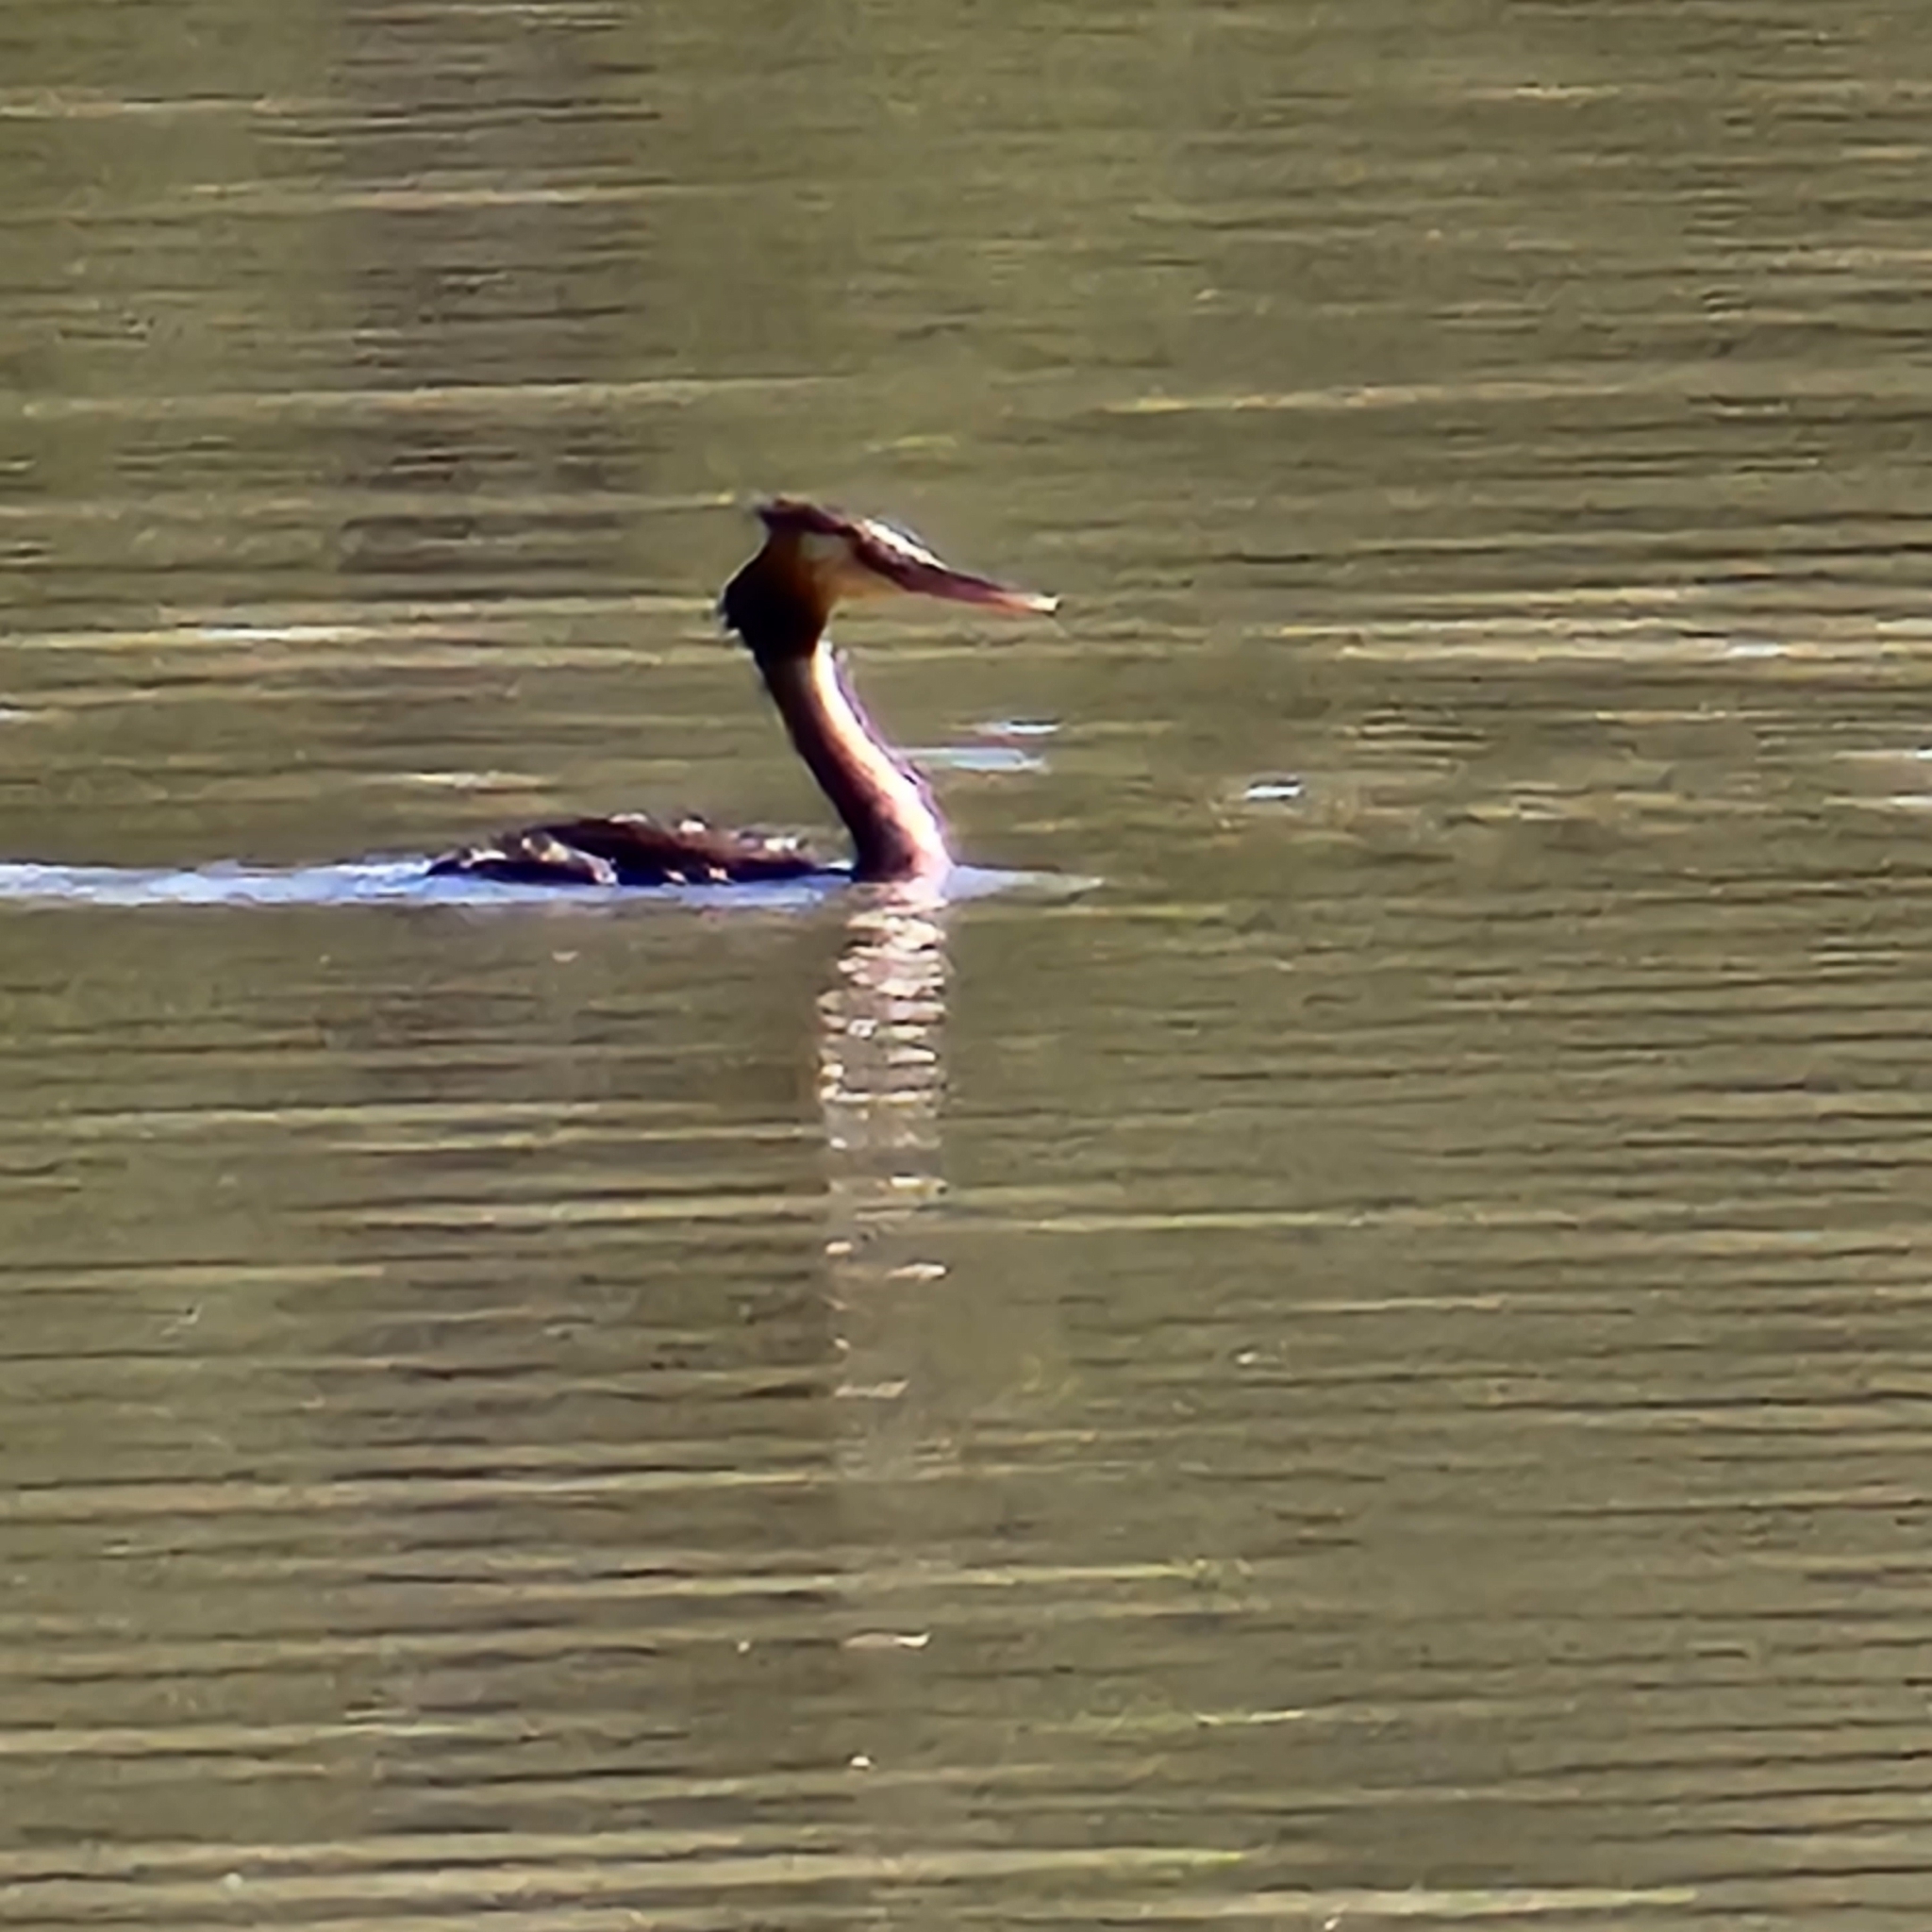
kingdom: Animalia
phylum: Chordata
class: Aves
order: Podicipediformes
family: Podicipedidae
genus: Podiceps
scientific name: Podiceps cristatus
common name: Great crested grebe
